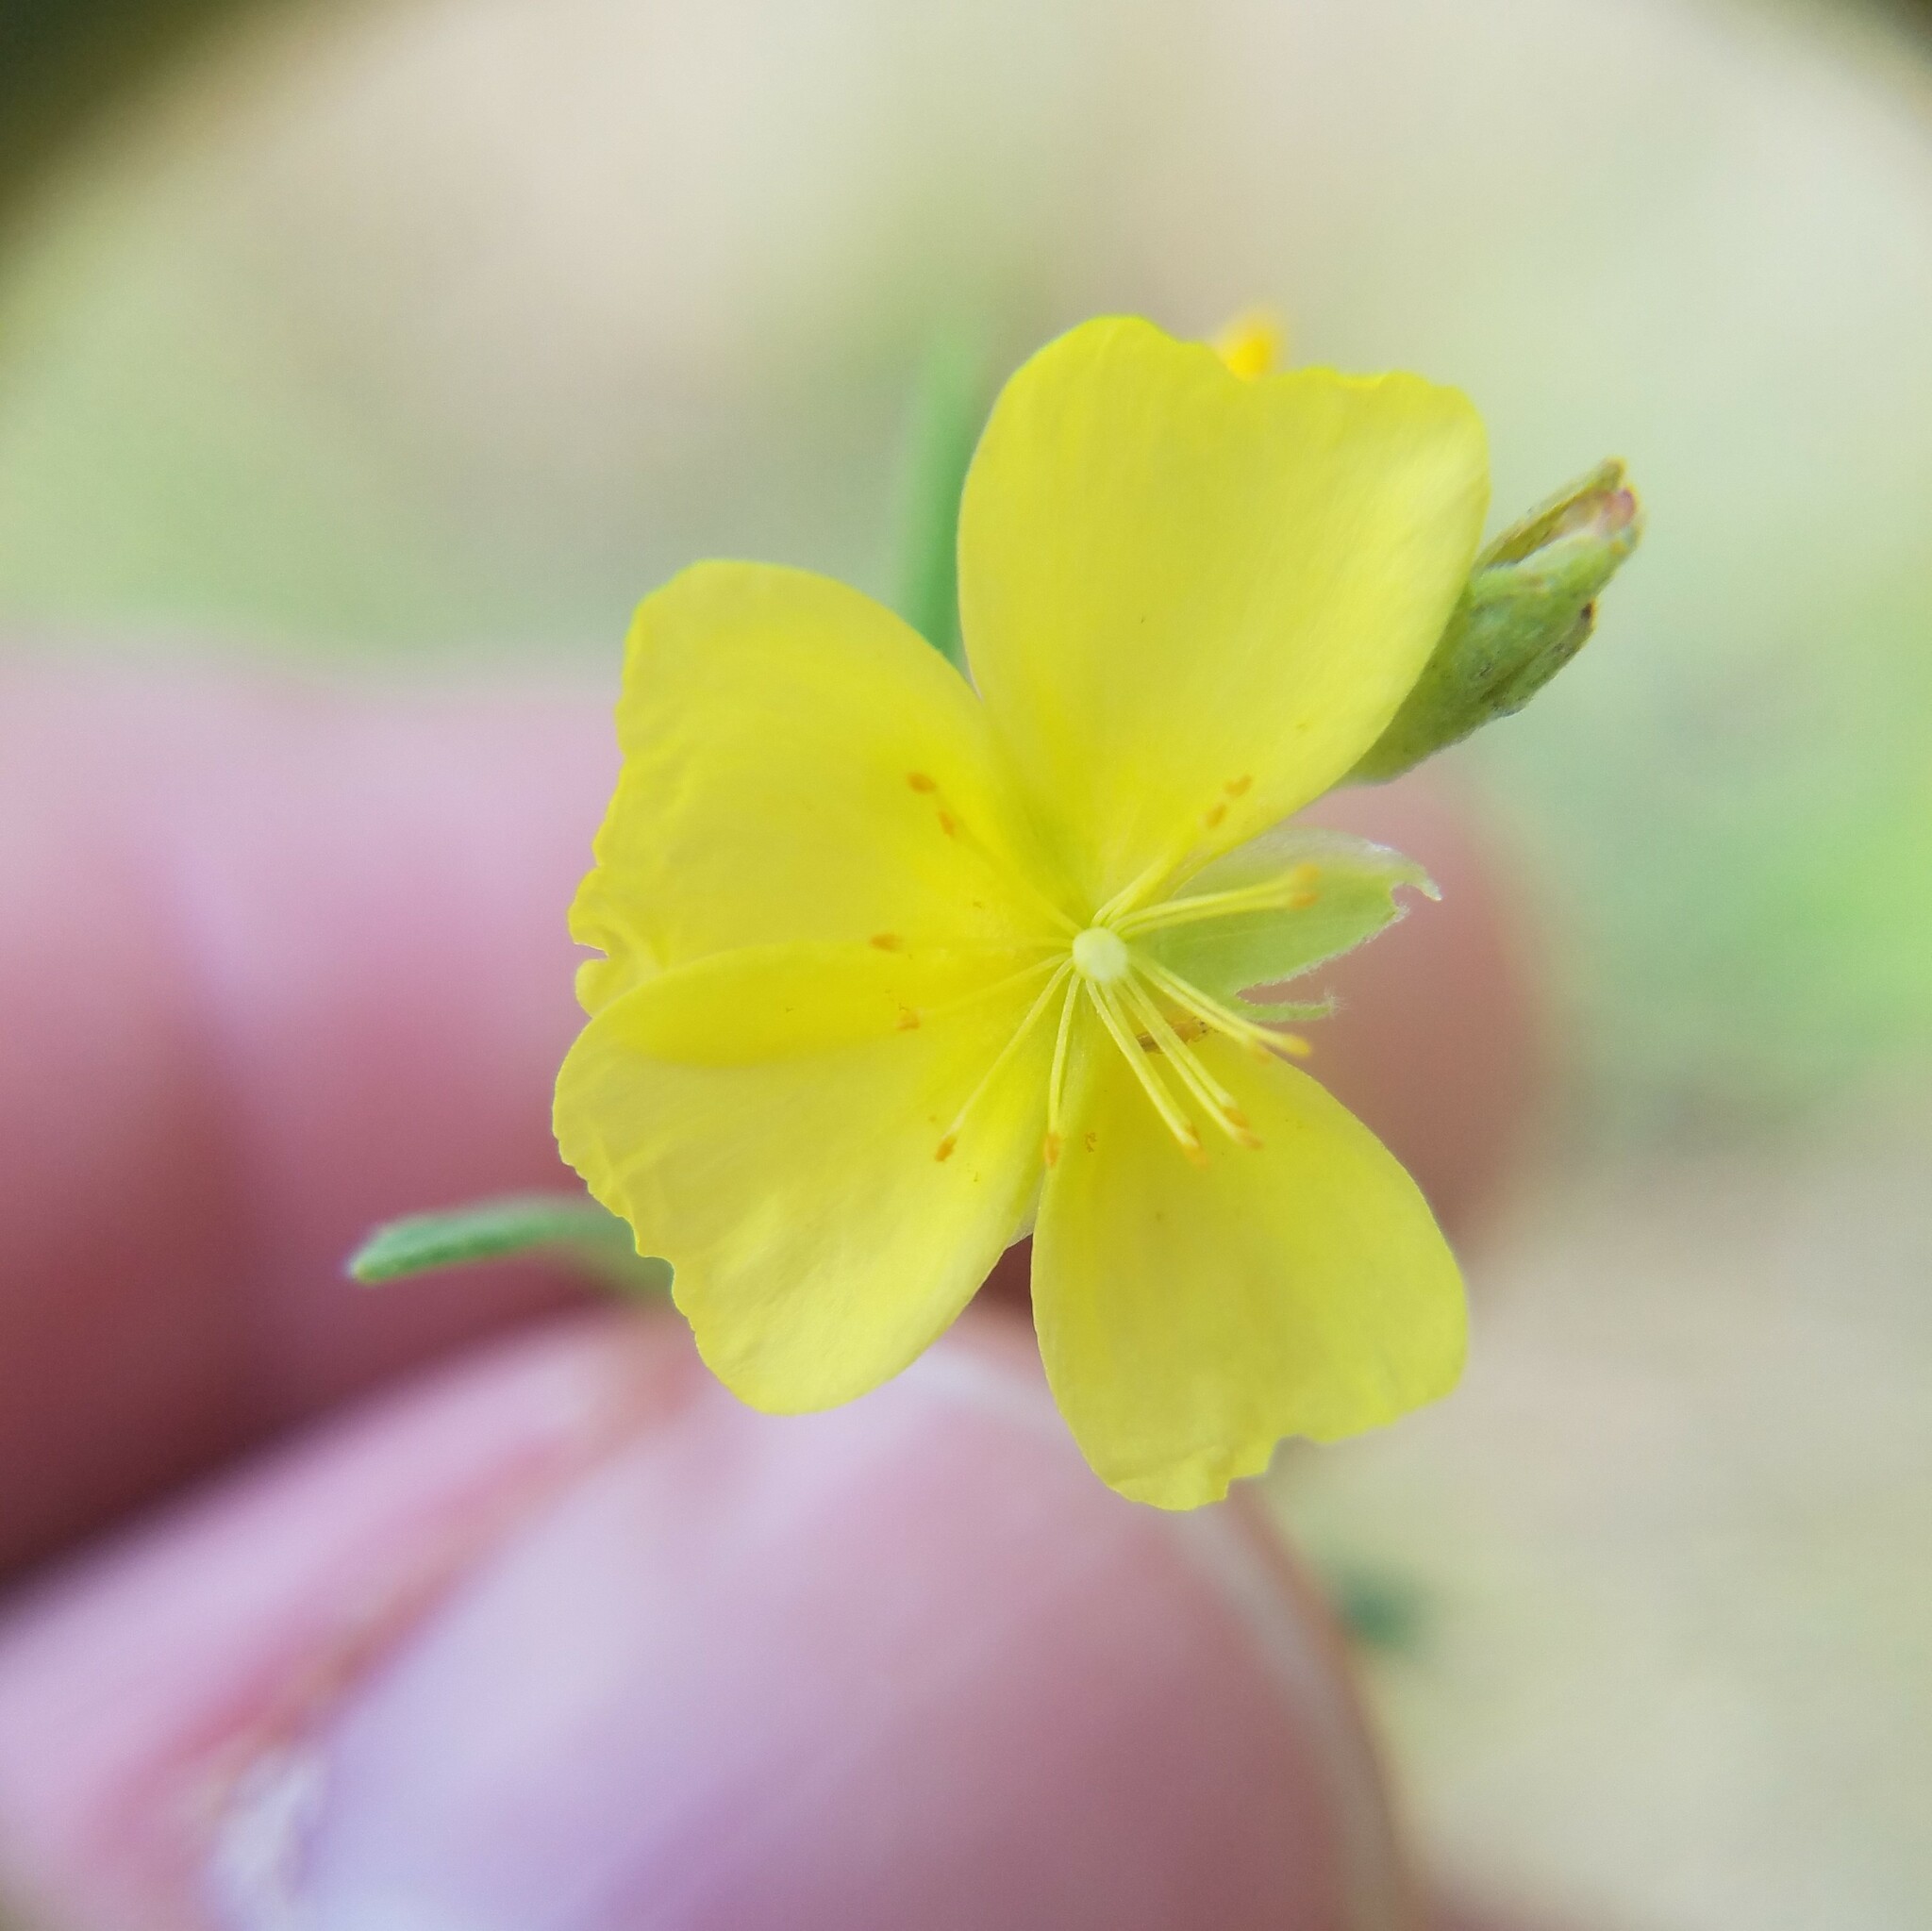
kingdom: Plantae
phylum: Tracheophyta
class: Magnoliopsida
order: Malvales
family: Cistaceae
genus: Crocanthemum
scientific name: Crocanthemum rosmarinifolium
